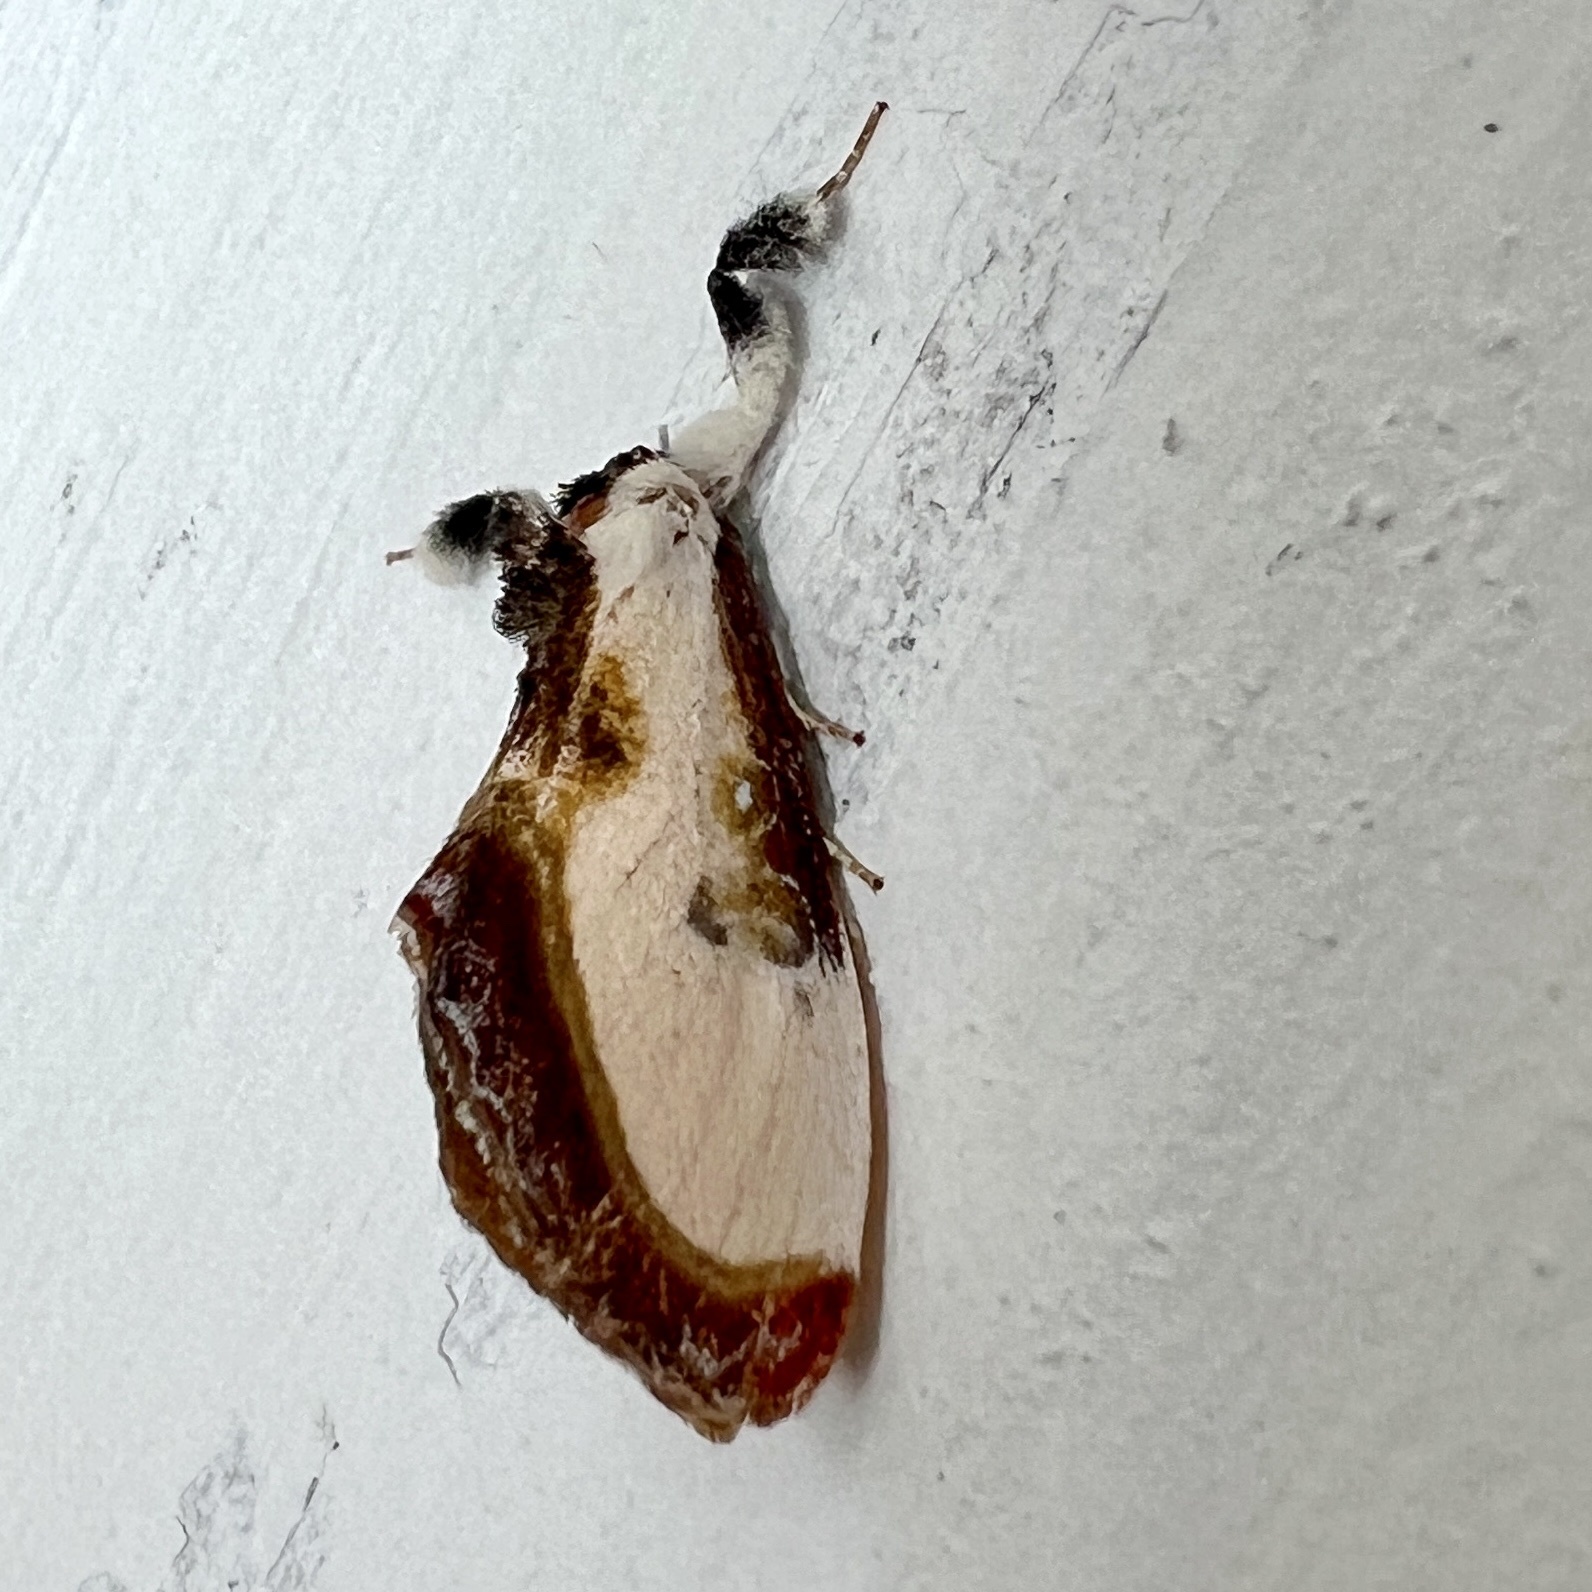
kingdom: Animalia
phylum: Arthropoda
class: Insecta
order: Lepidoptera
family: Noctuidae
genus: Eudryas
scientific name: Eudryas grata
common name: Beautiful wood-nymph
